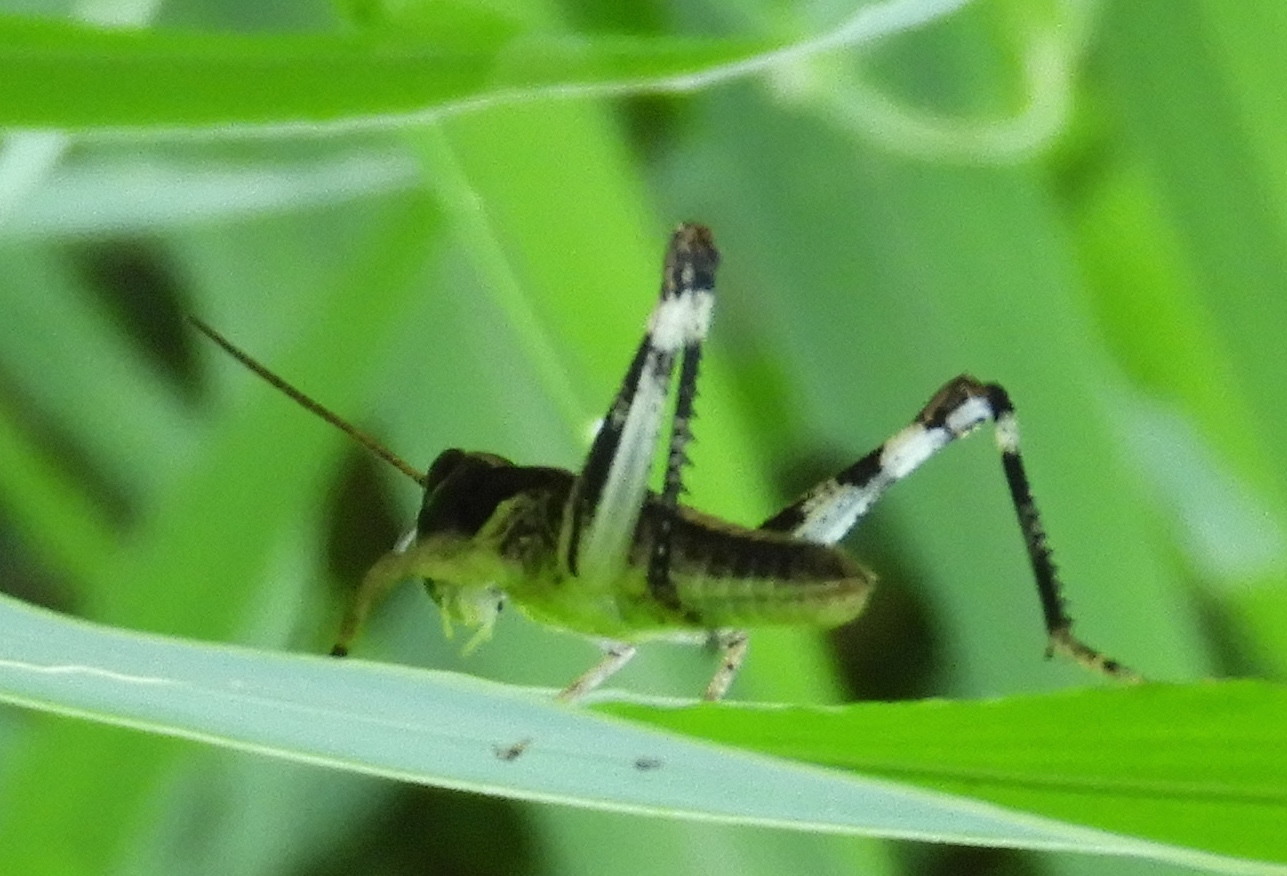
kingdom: Animalia
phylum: Arthropoda
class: Insecta
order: Orthoptera
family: Acrididae
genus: Boopedon
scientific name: Boopedon flaviventris
